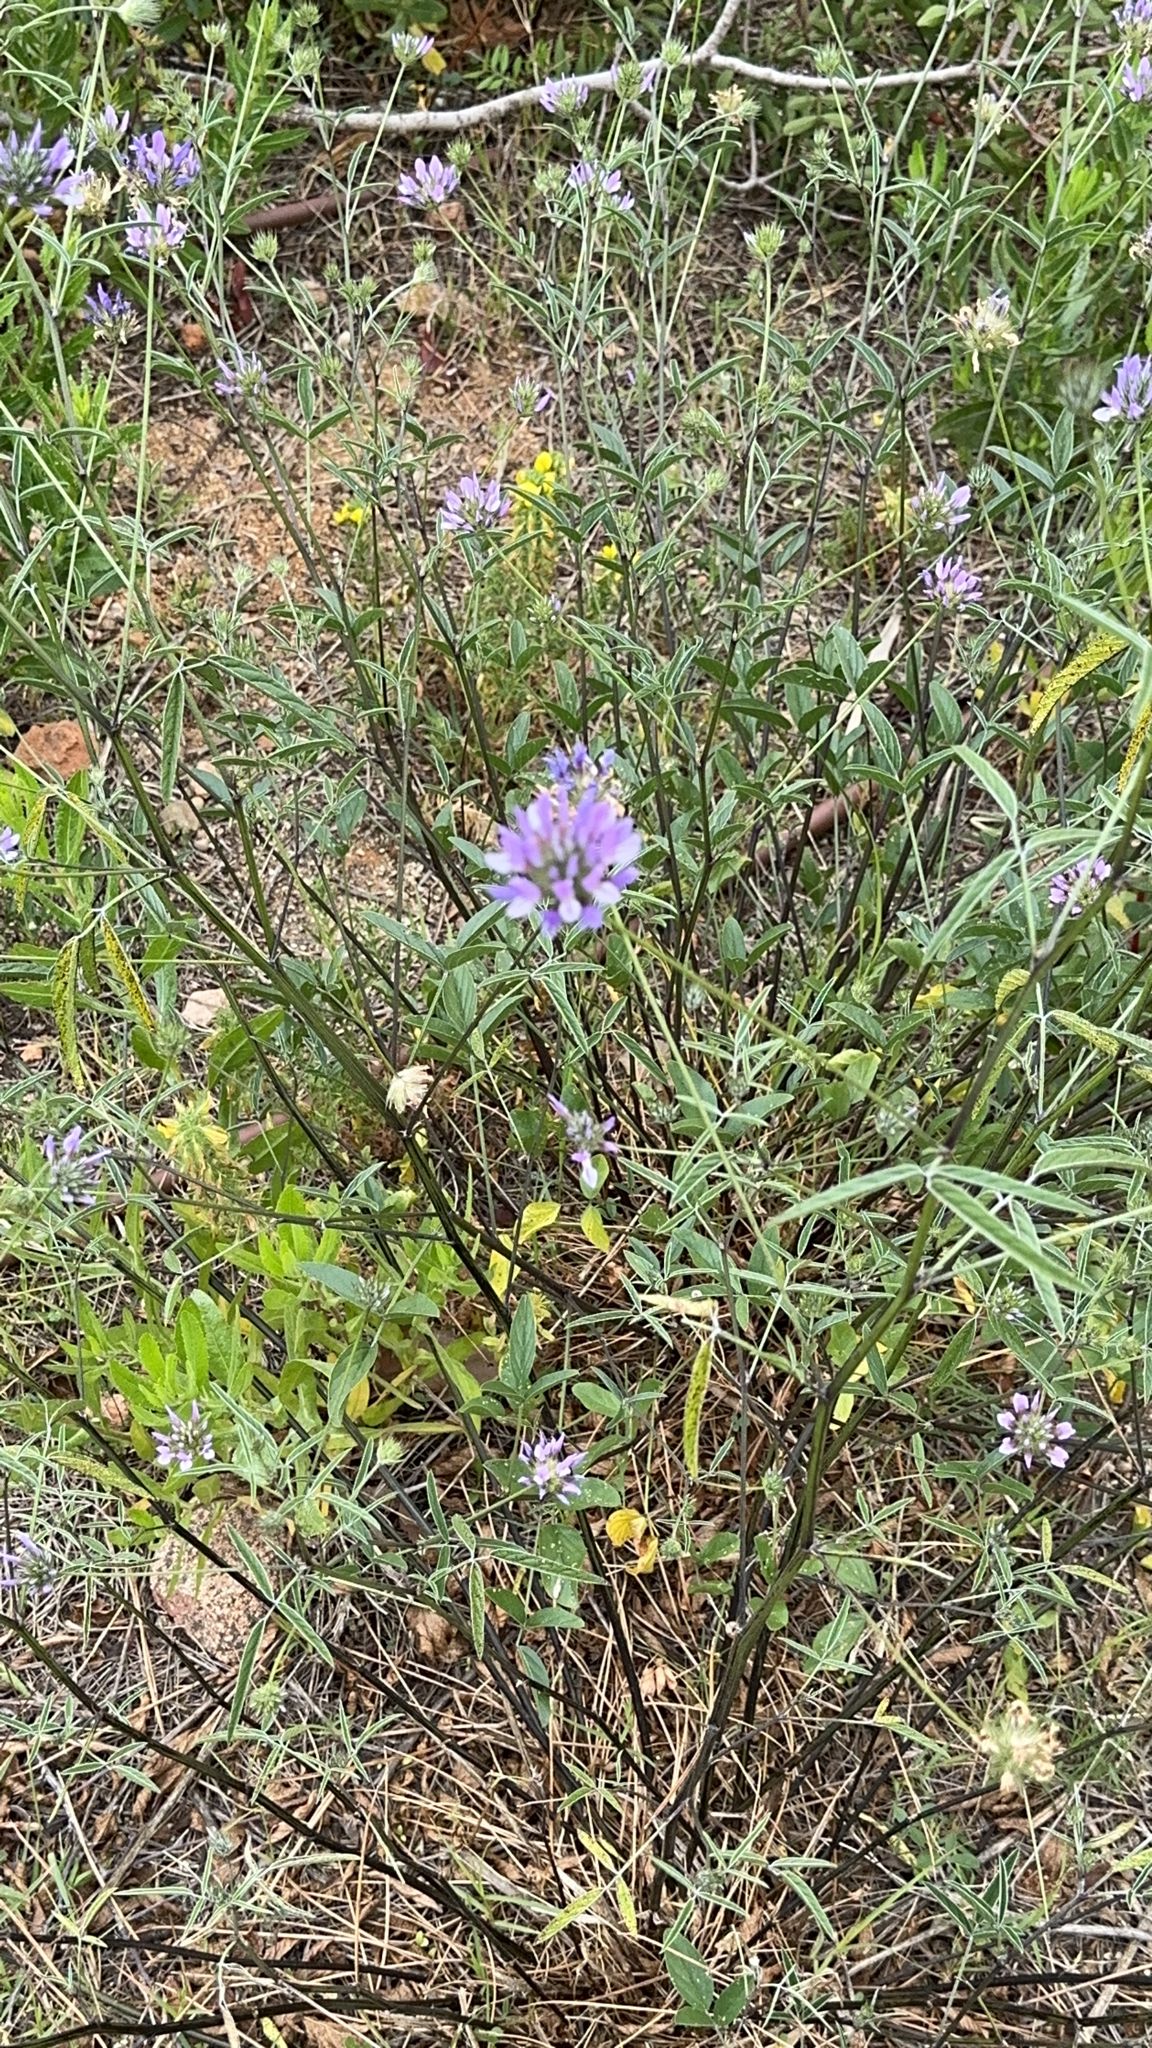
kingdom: Plantae
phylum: Tracheophyta
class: Magnoliopsida
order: Fabales
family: Fabaceae
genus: Bituminaria
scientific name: Bituminaria bituminosa
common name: Arabian pea
